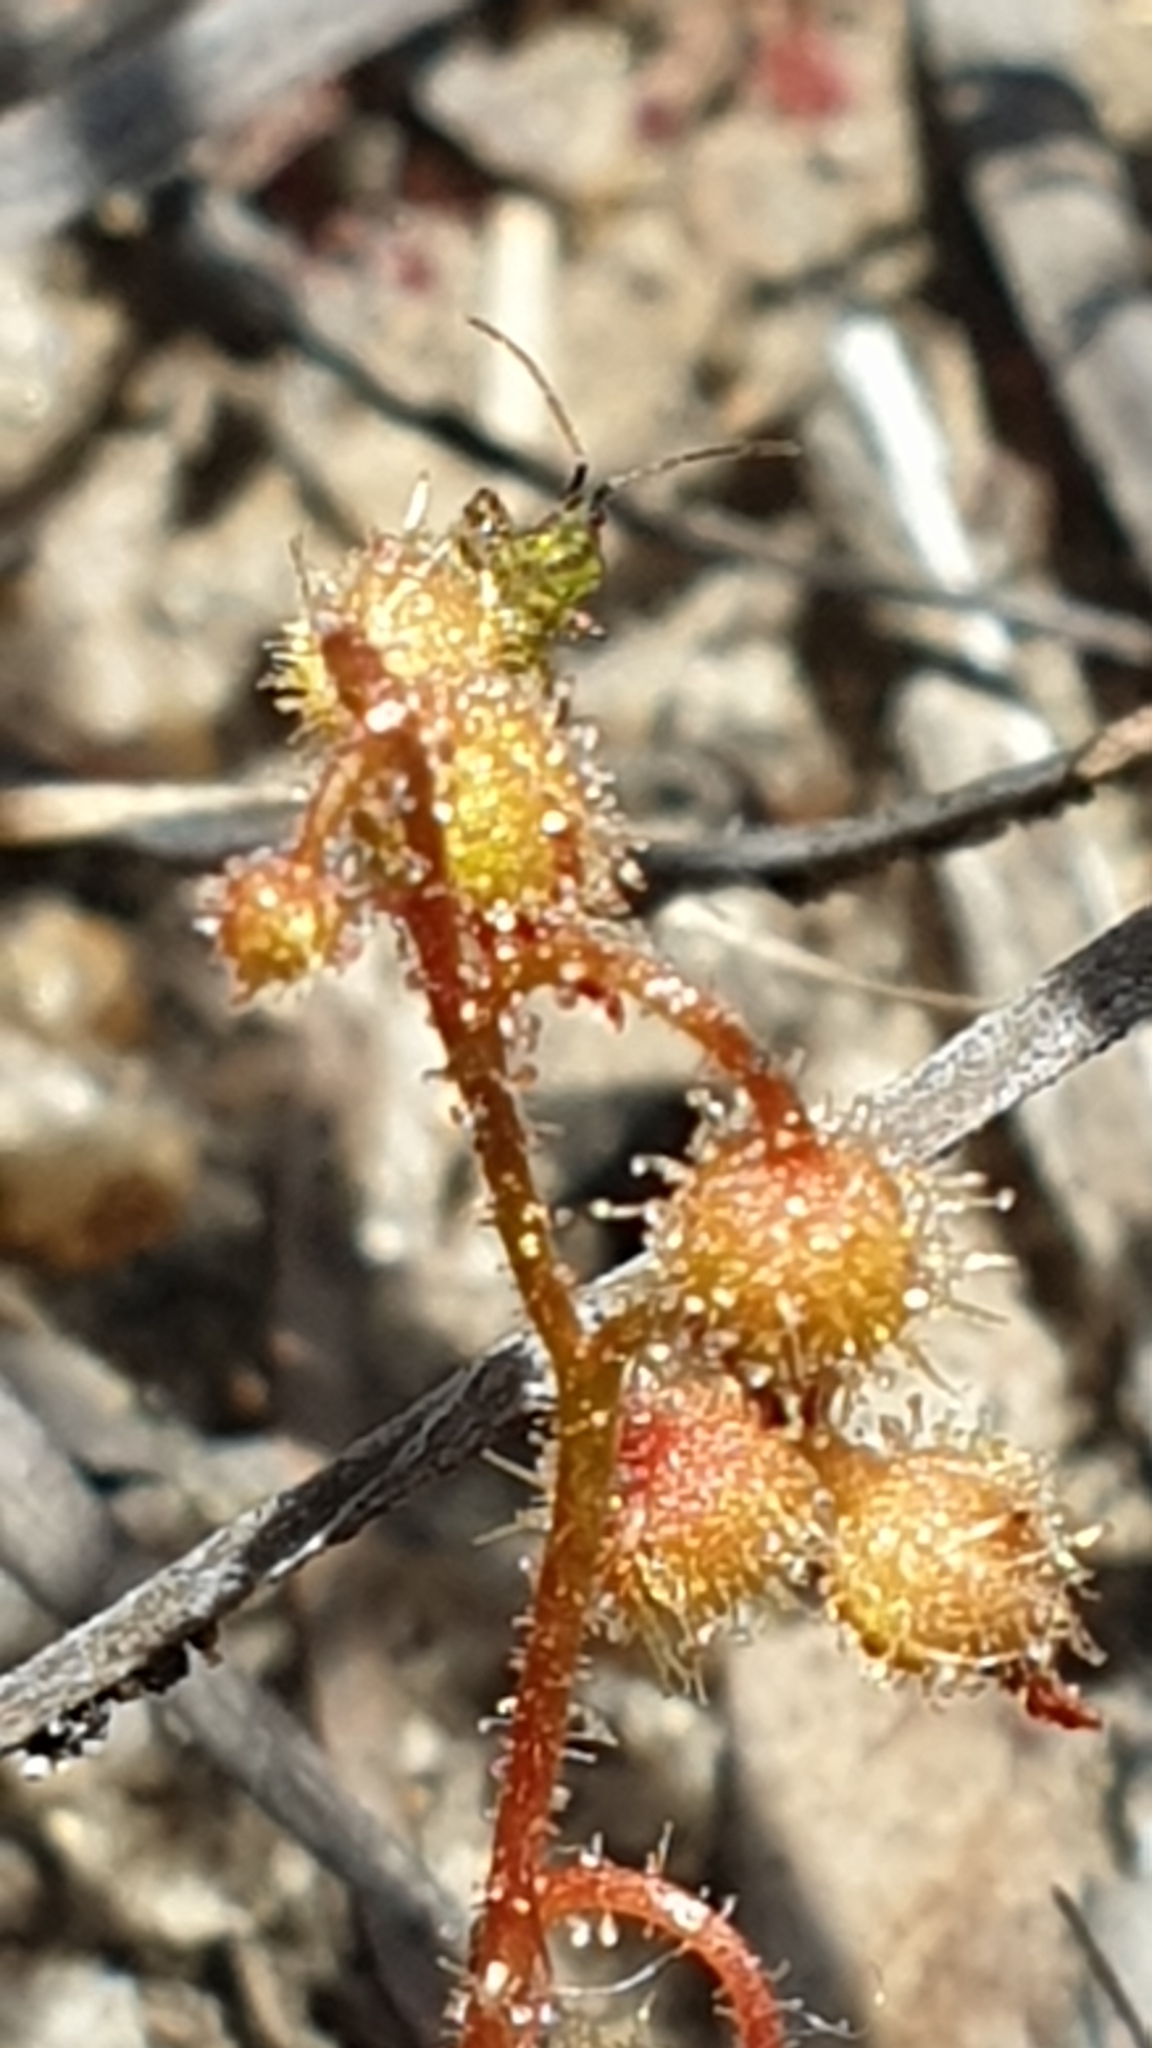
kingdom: Plantae
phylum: Tracheophyta
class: Magnoliopsida
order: Caryophyllales
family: Droseraceae
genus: Drosera
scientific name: Drosera glanduligera
